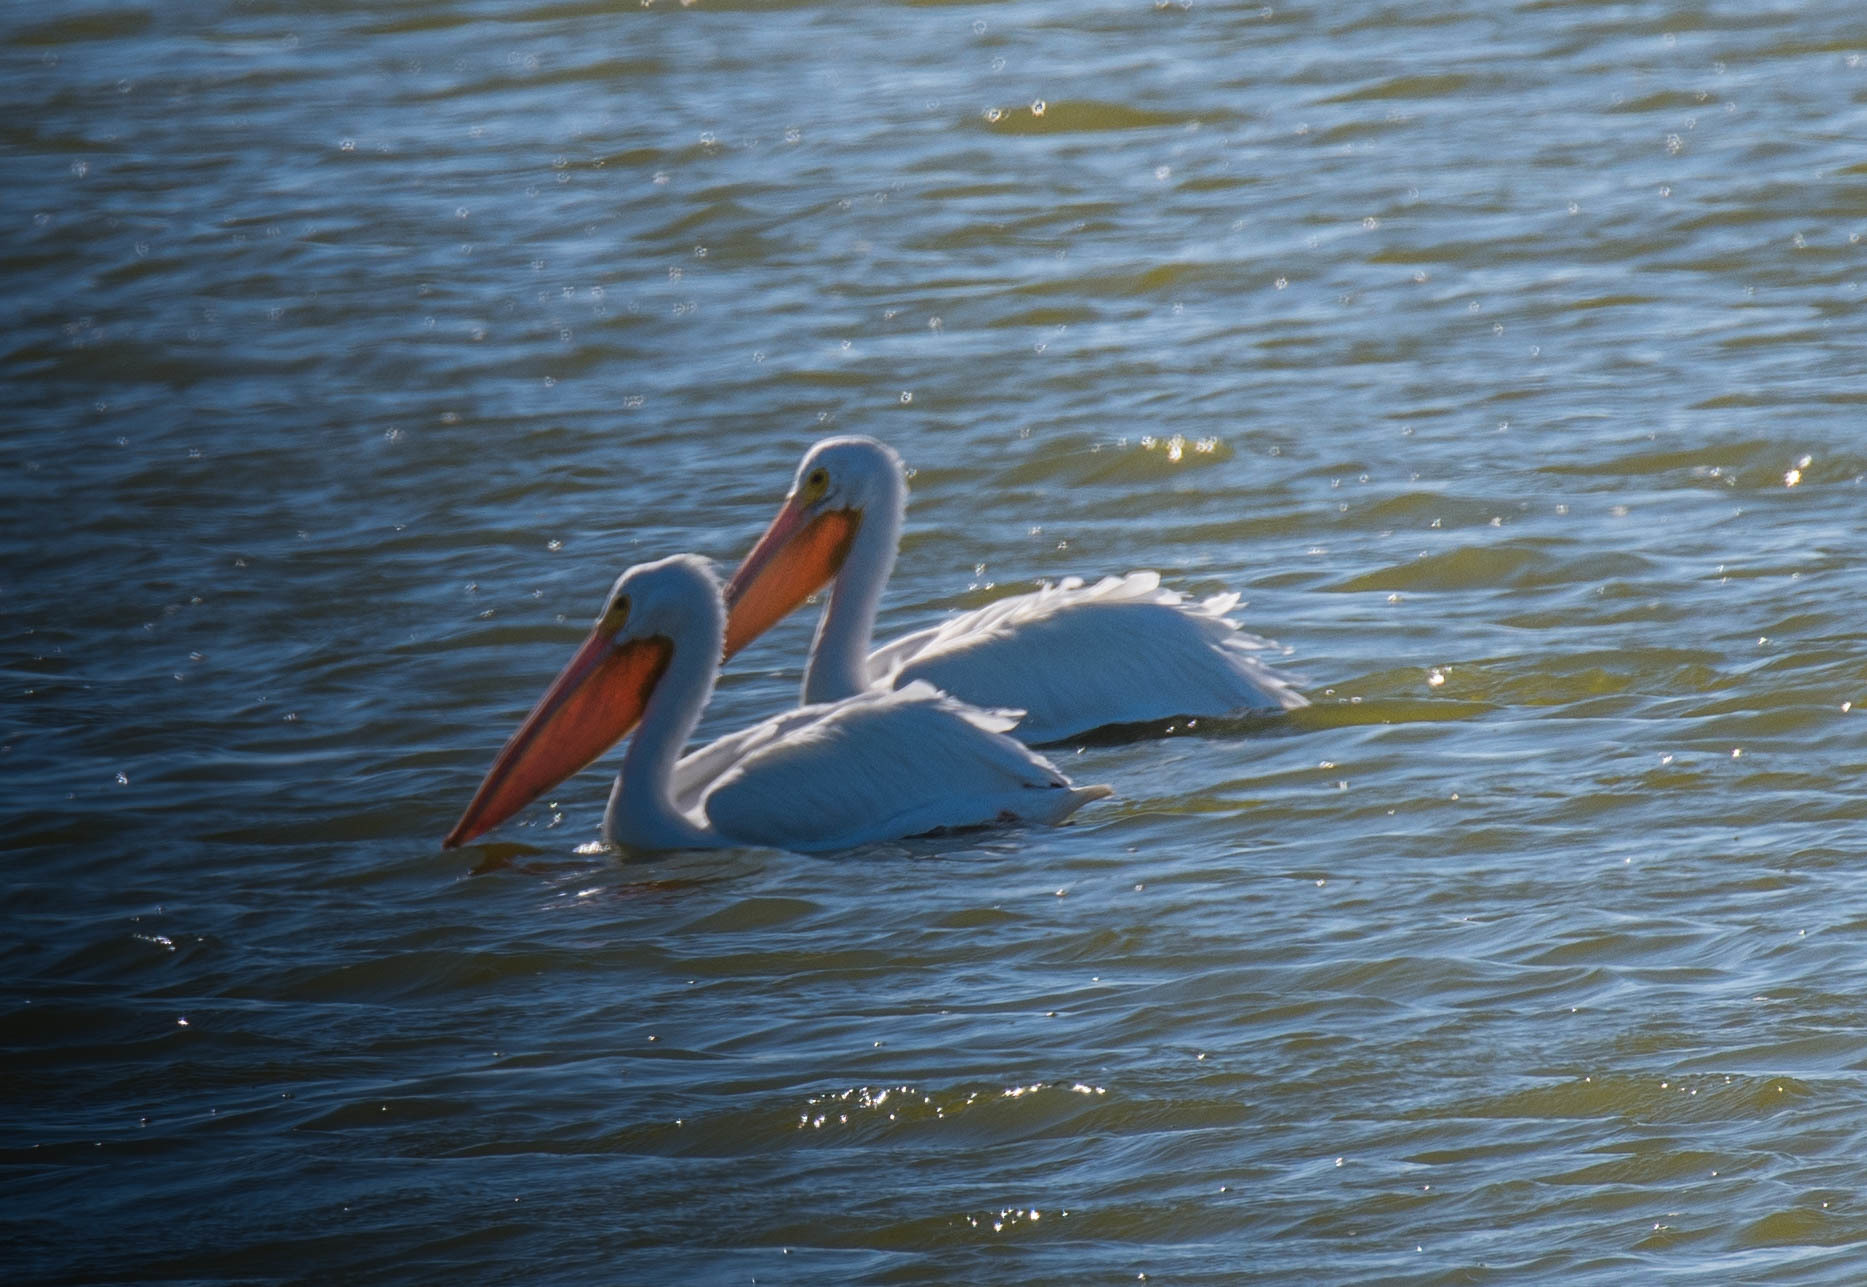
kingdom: Animalia
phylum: Chordata
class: Aves
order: Pelecaniformes
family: Pelecanidae
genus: Pelecanus
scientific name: Pelecanus erythrorhynchos
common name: American white pelican
